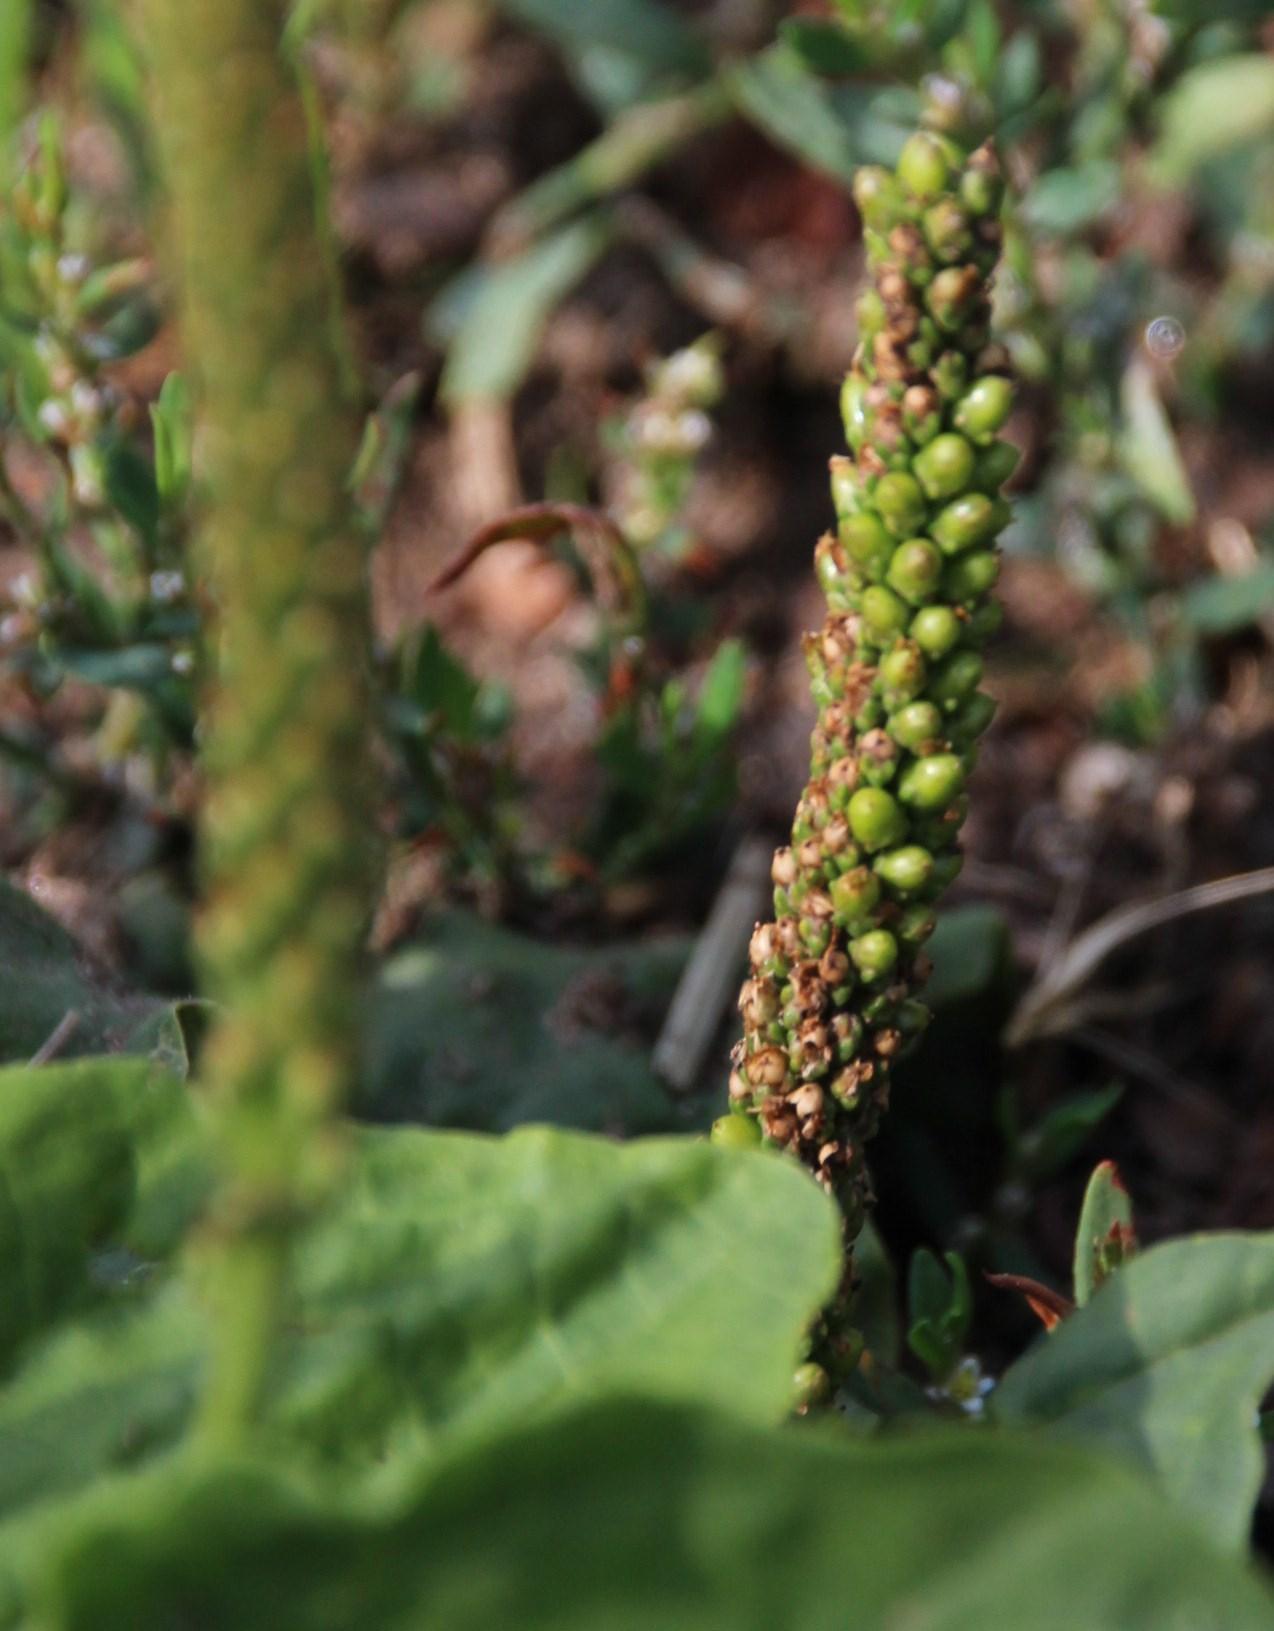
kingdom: Plantae
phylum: Tracheophyta
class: Magnoliopsida
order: Lamiales
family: Plantaginaceae
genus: Plantago
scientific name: Plantago major
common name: Common plantain
